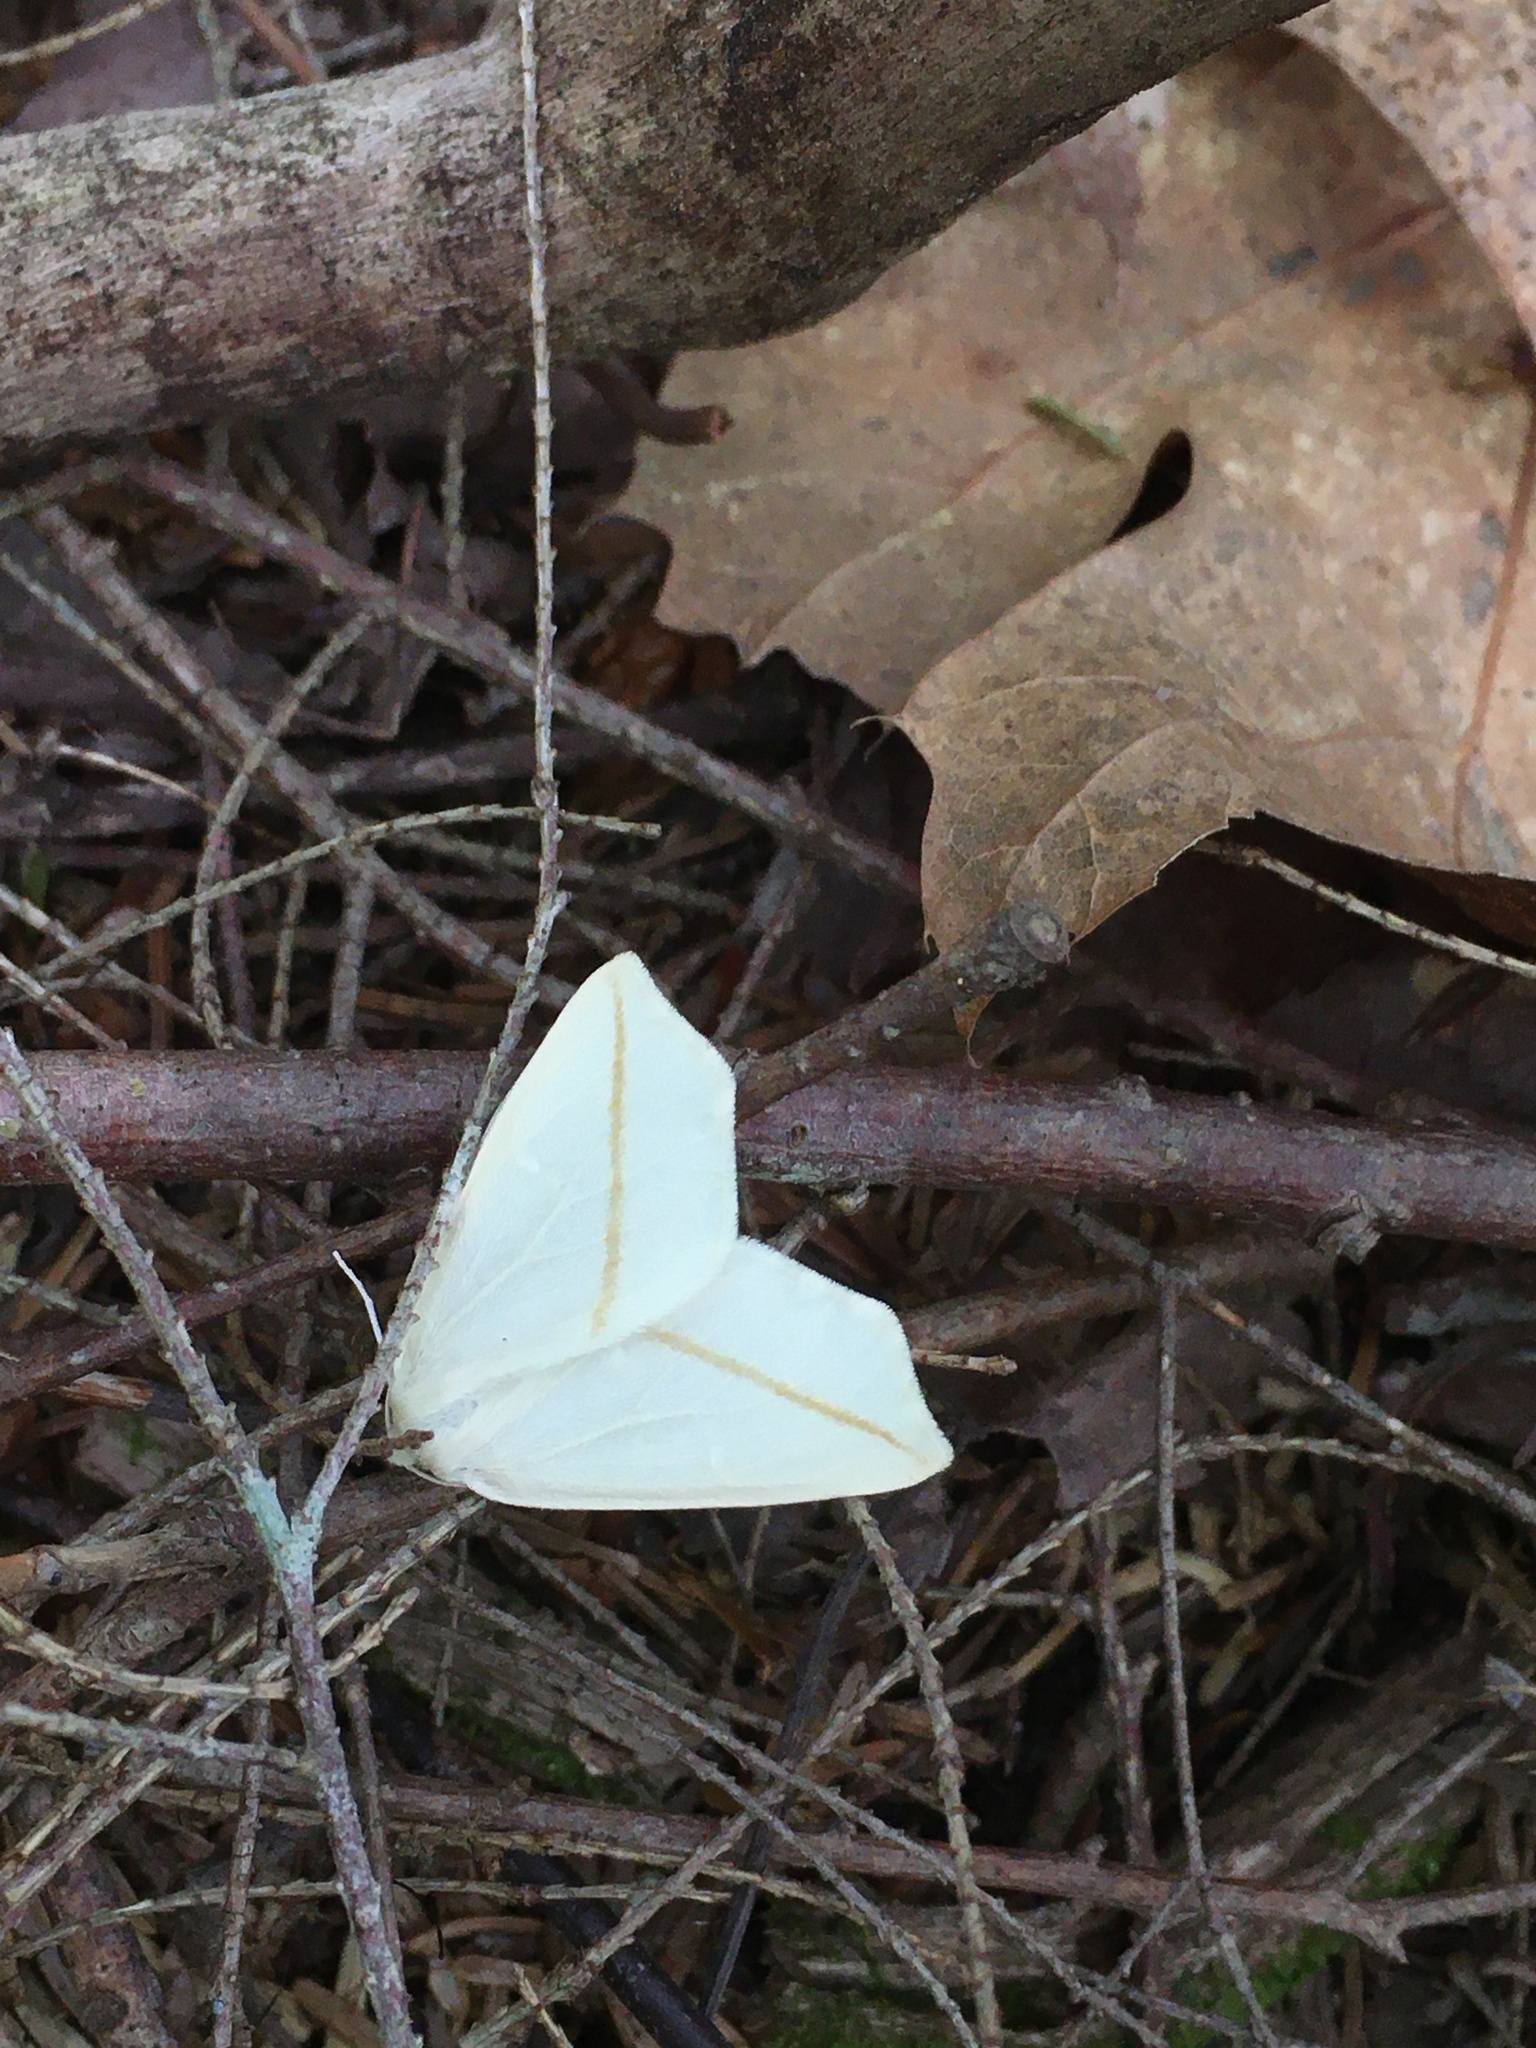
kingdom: Animalia
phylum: Arthropoda
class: Insecta
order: Lepidoptera
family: Geometridae
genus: Tetracis
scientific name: Tetracis cachexiata
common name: White slant-line
